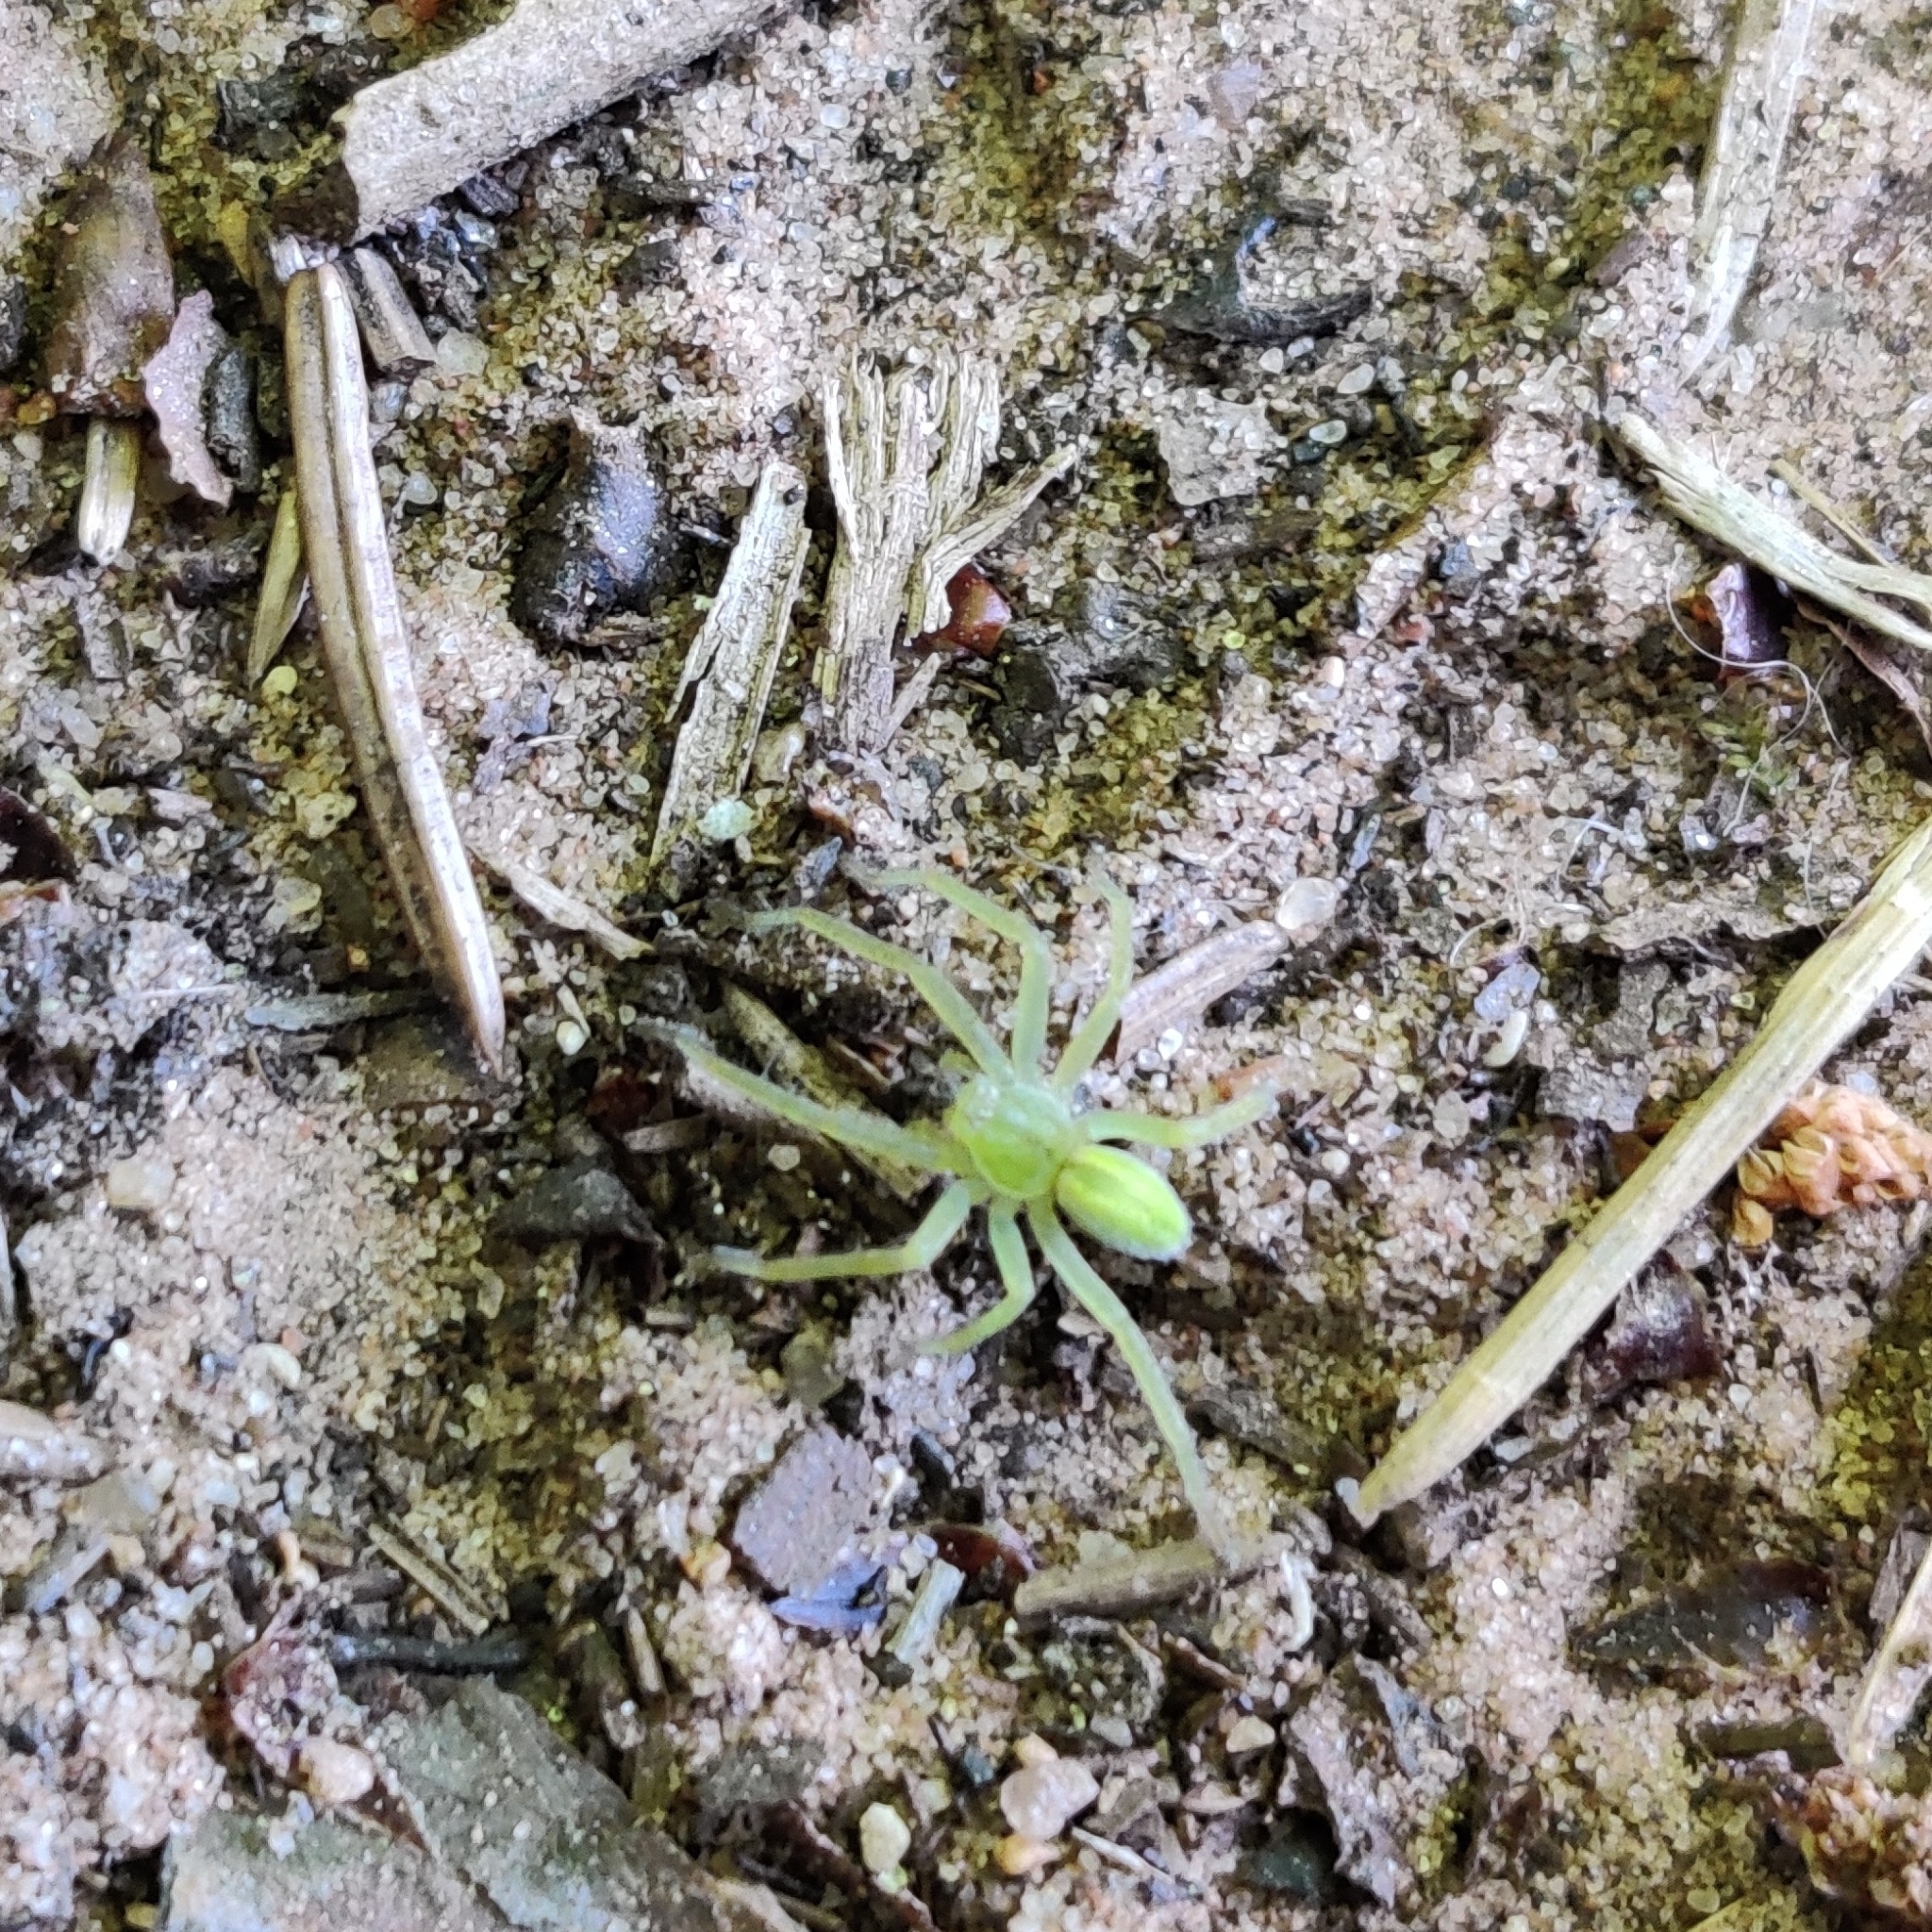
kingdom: Animalia
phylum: Arthropoda
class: Arachnida
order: Araneae
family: Sparassidae
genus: Micrommata
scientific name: Micrommata virescens
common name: Green spider
